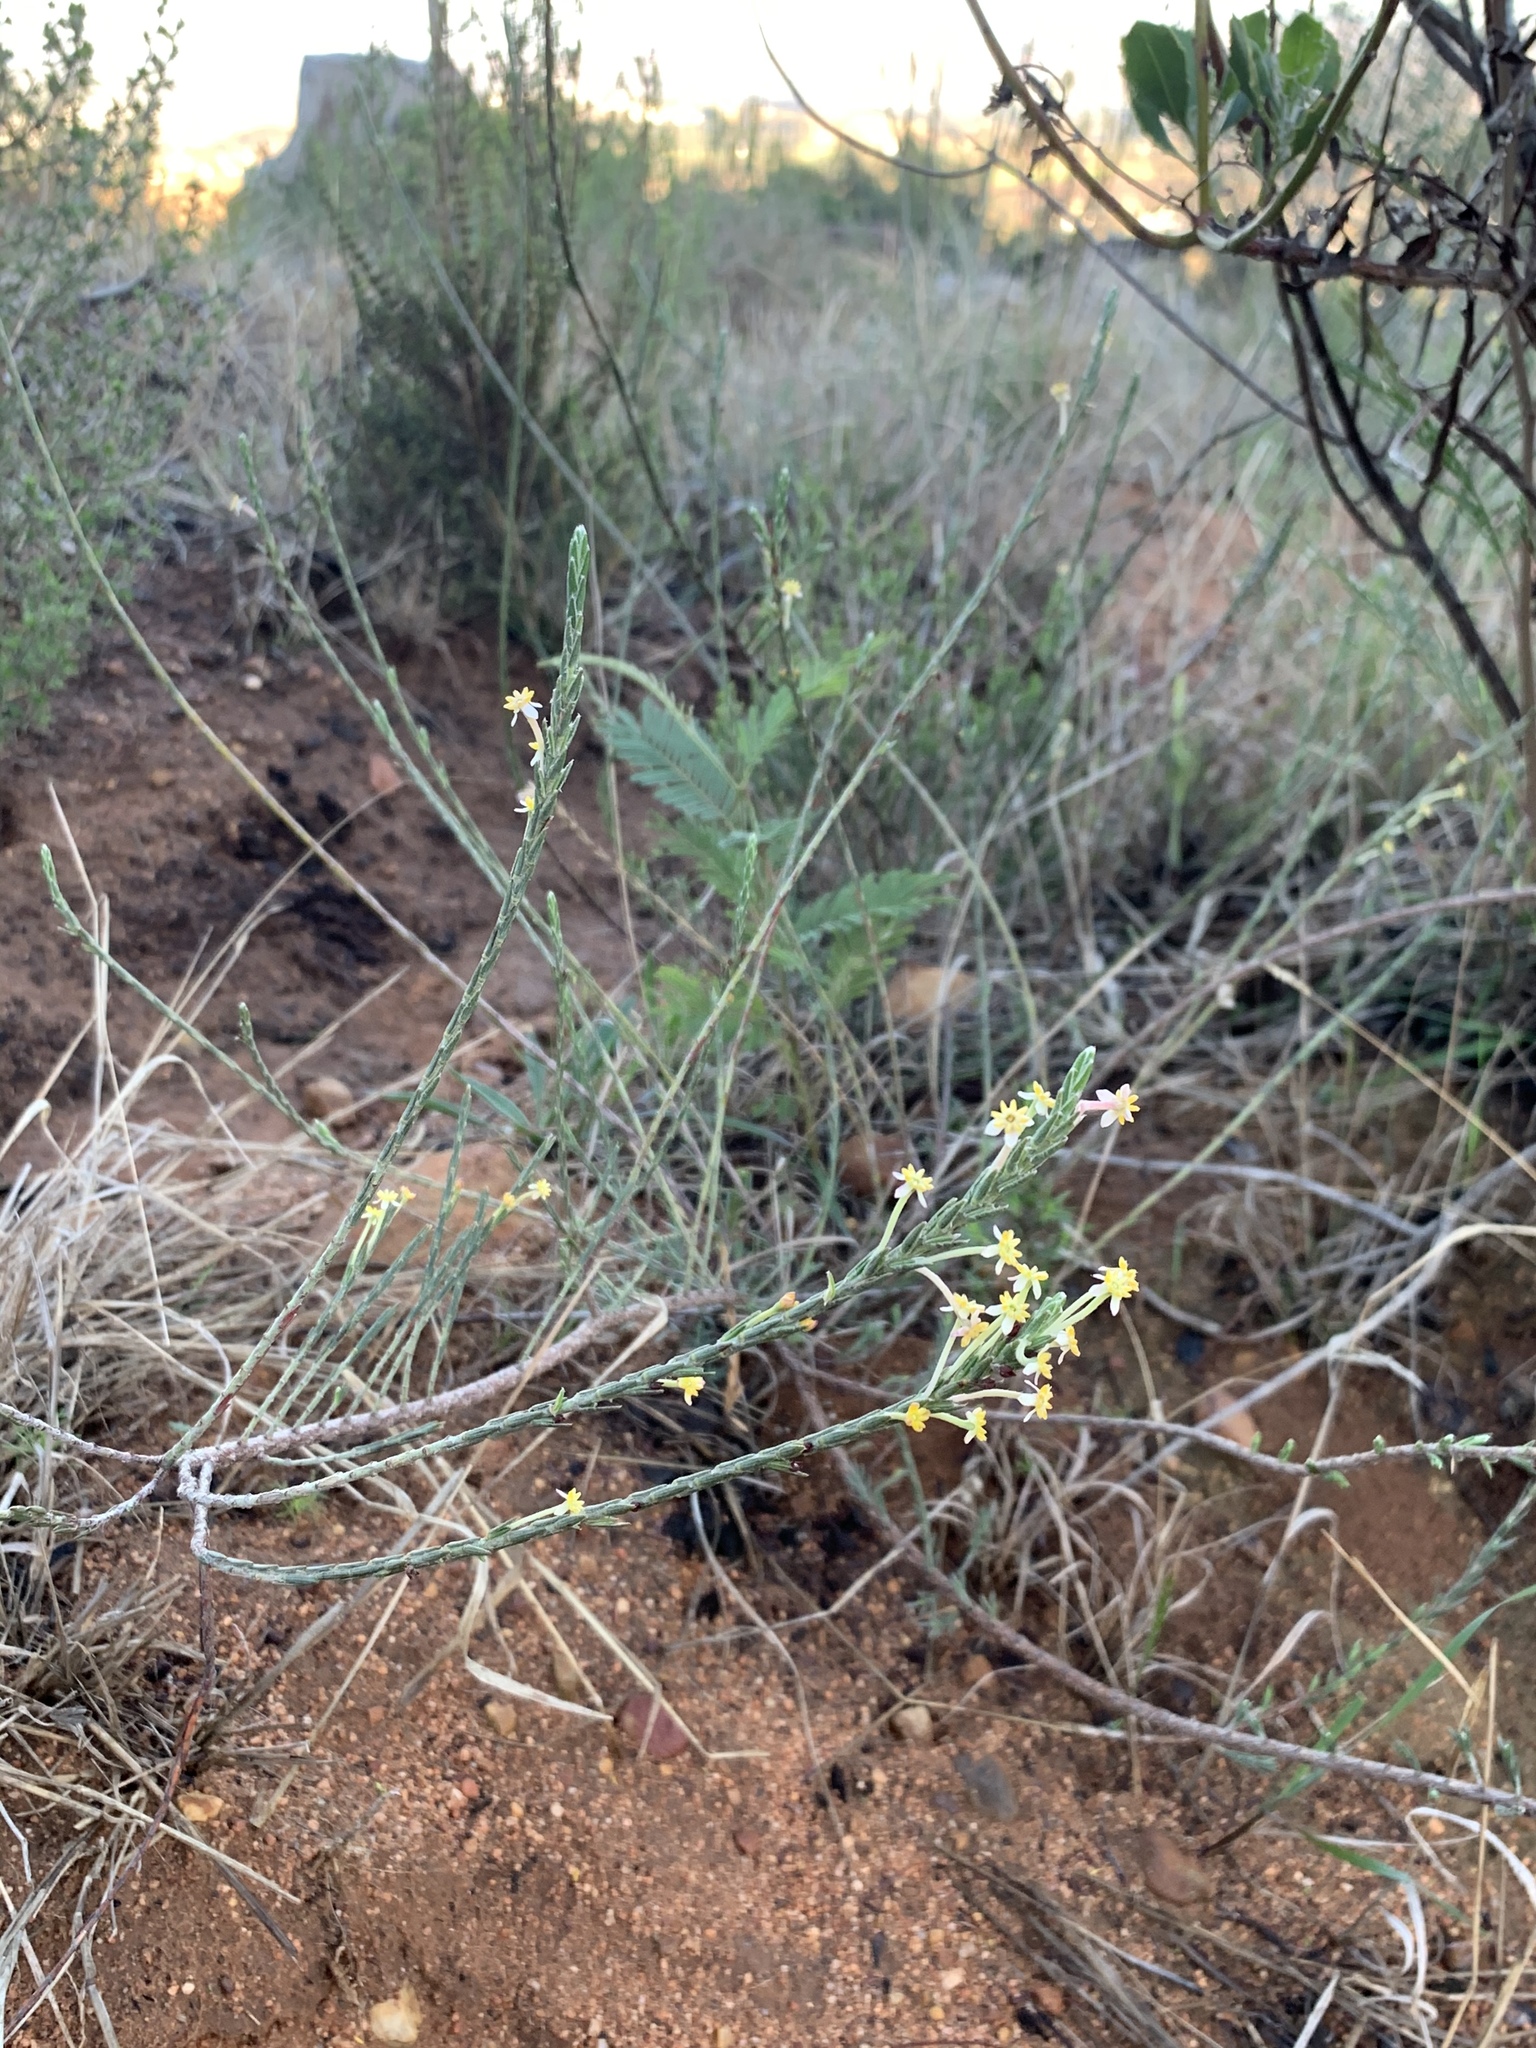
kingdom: Plantae
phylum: Tracheophyta
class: Magnoliopsida
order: Malvales
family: Thymelaeaceae
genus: Struthiola
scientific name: Struthiola ciliata
